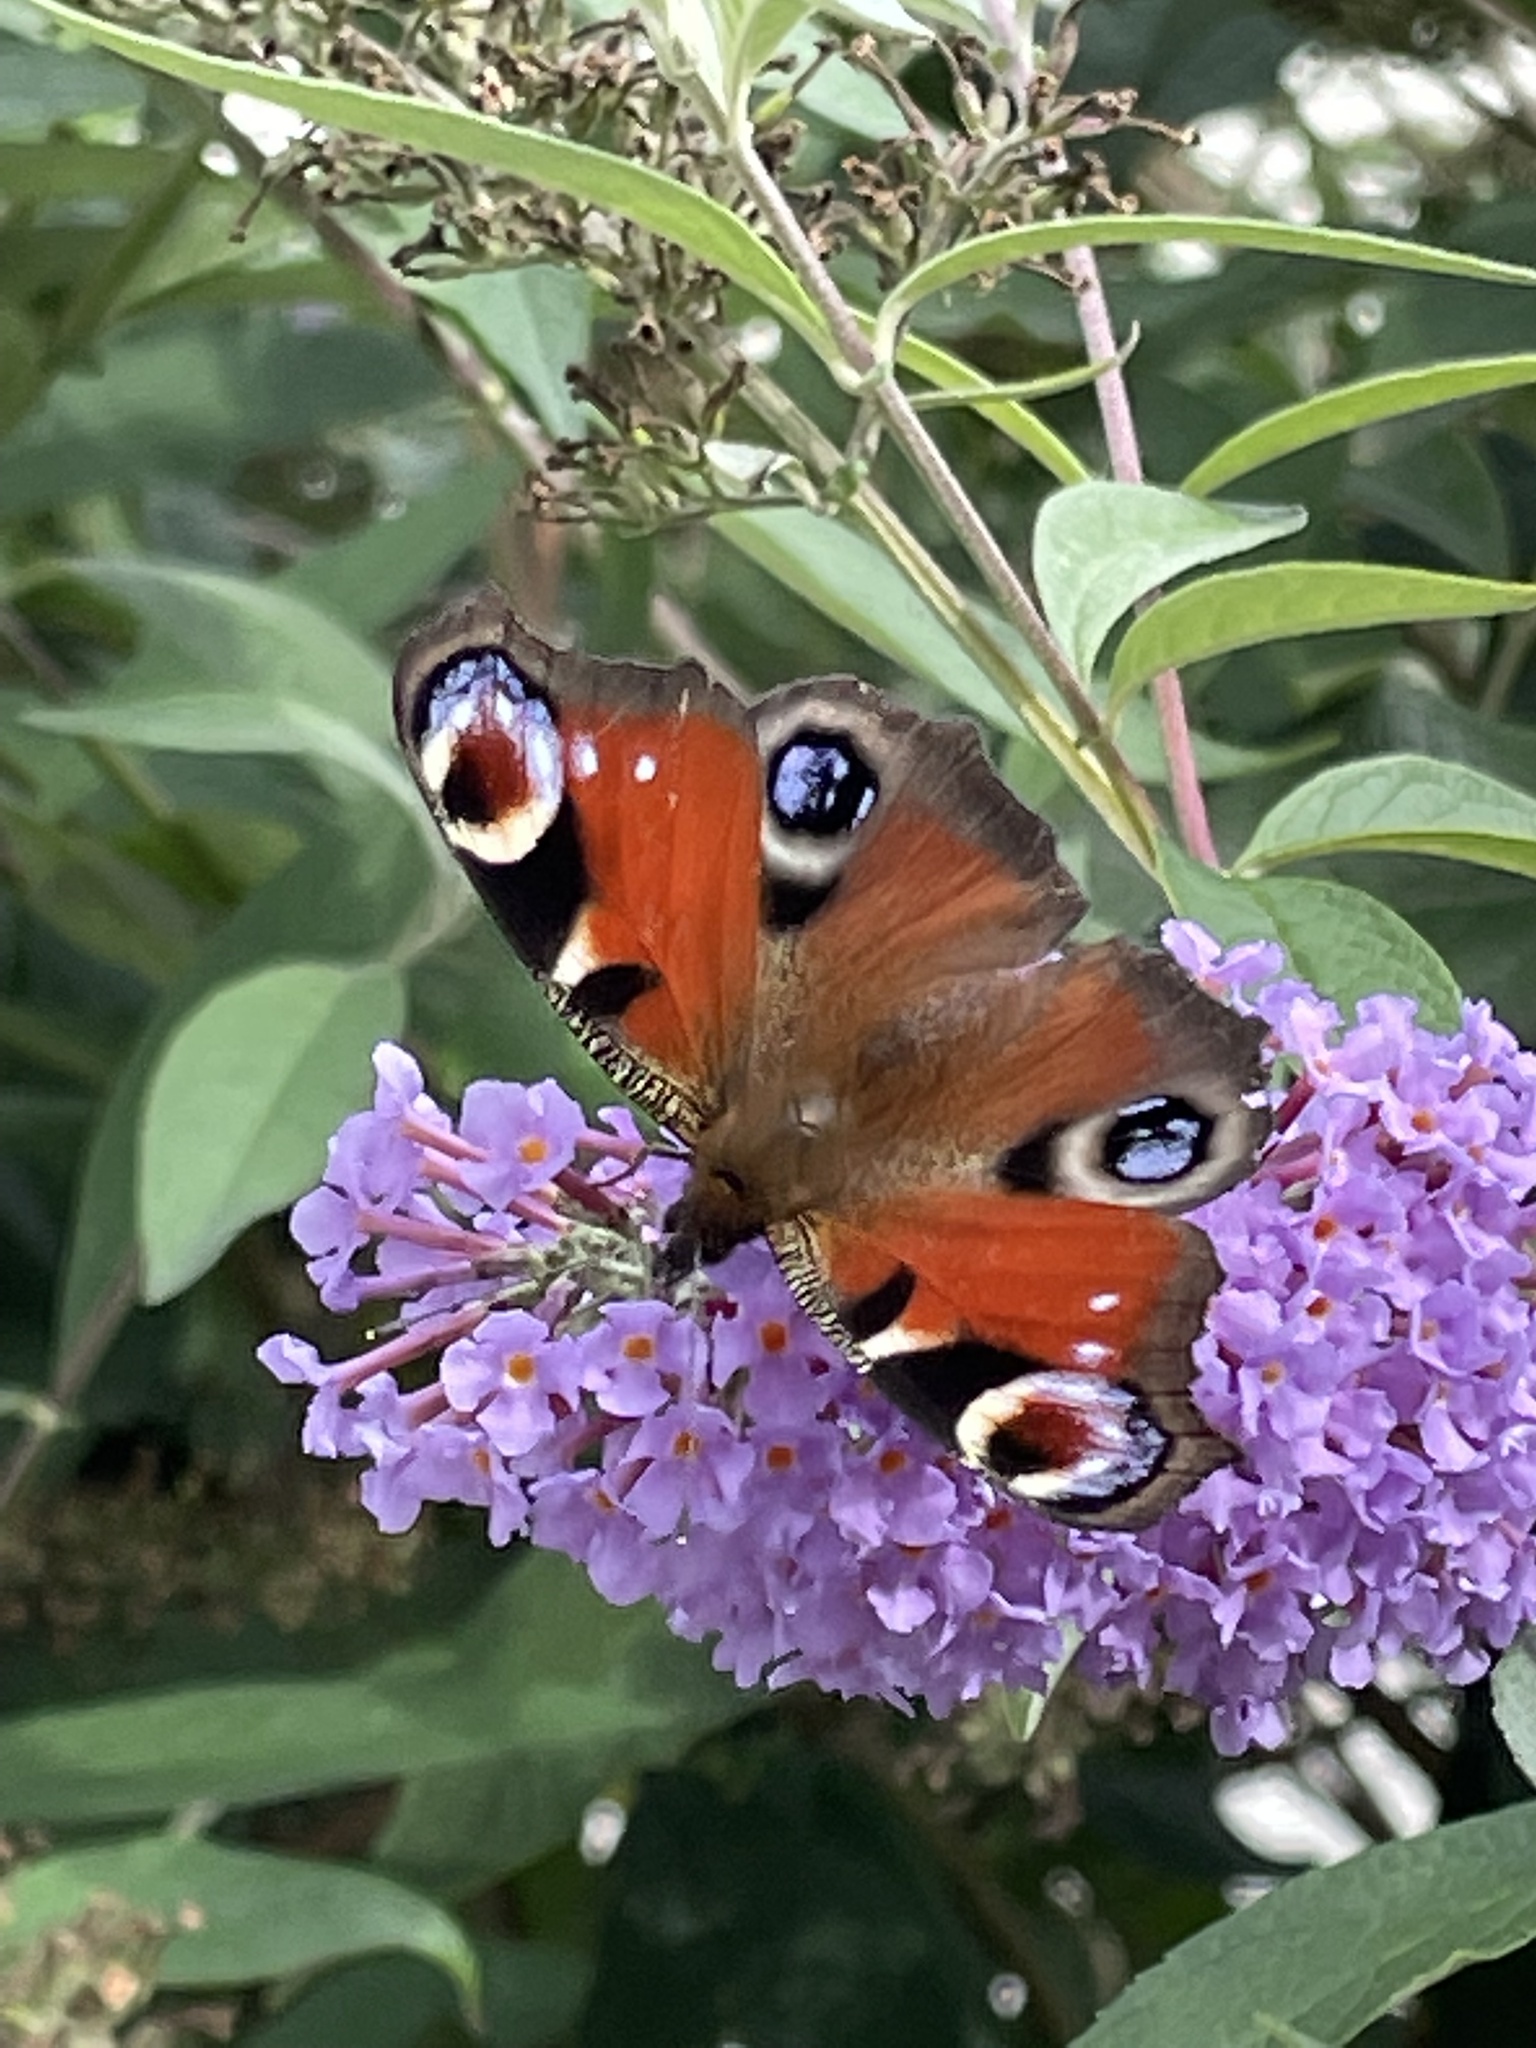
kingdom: Animalia
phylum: Arthropoda
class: Insecta
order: Lepidoptera
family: Nymphalidae
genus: Aglais
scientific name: Aglais io
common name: Peacock
